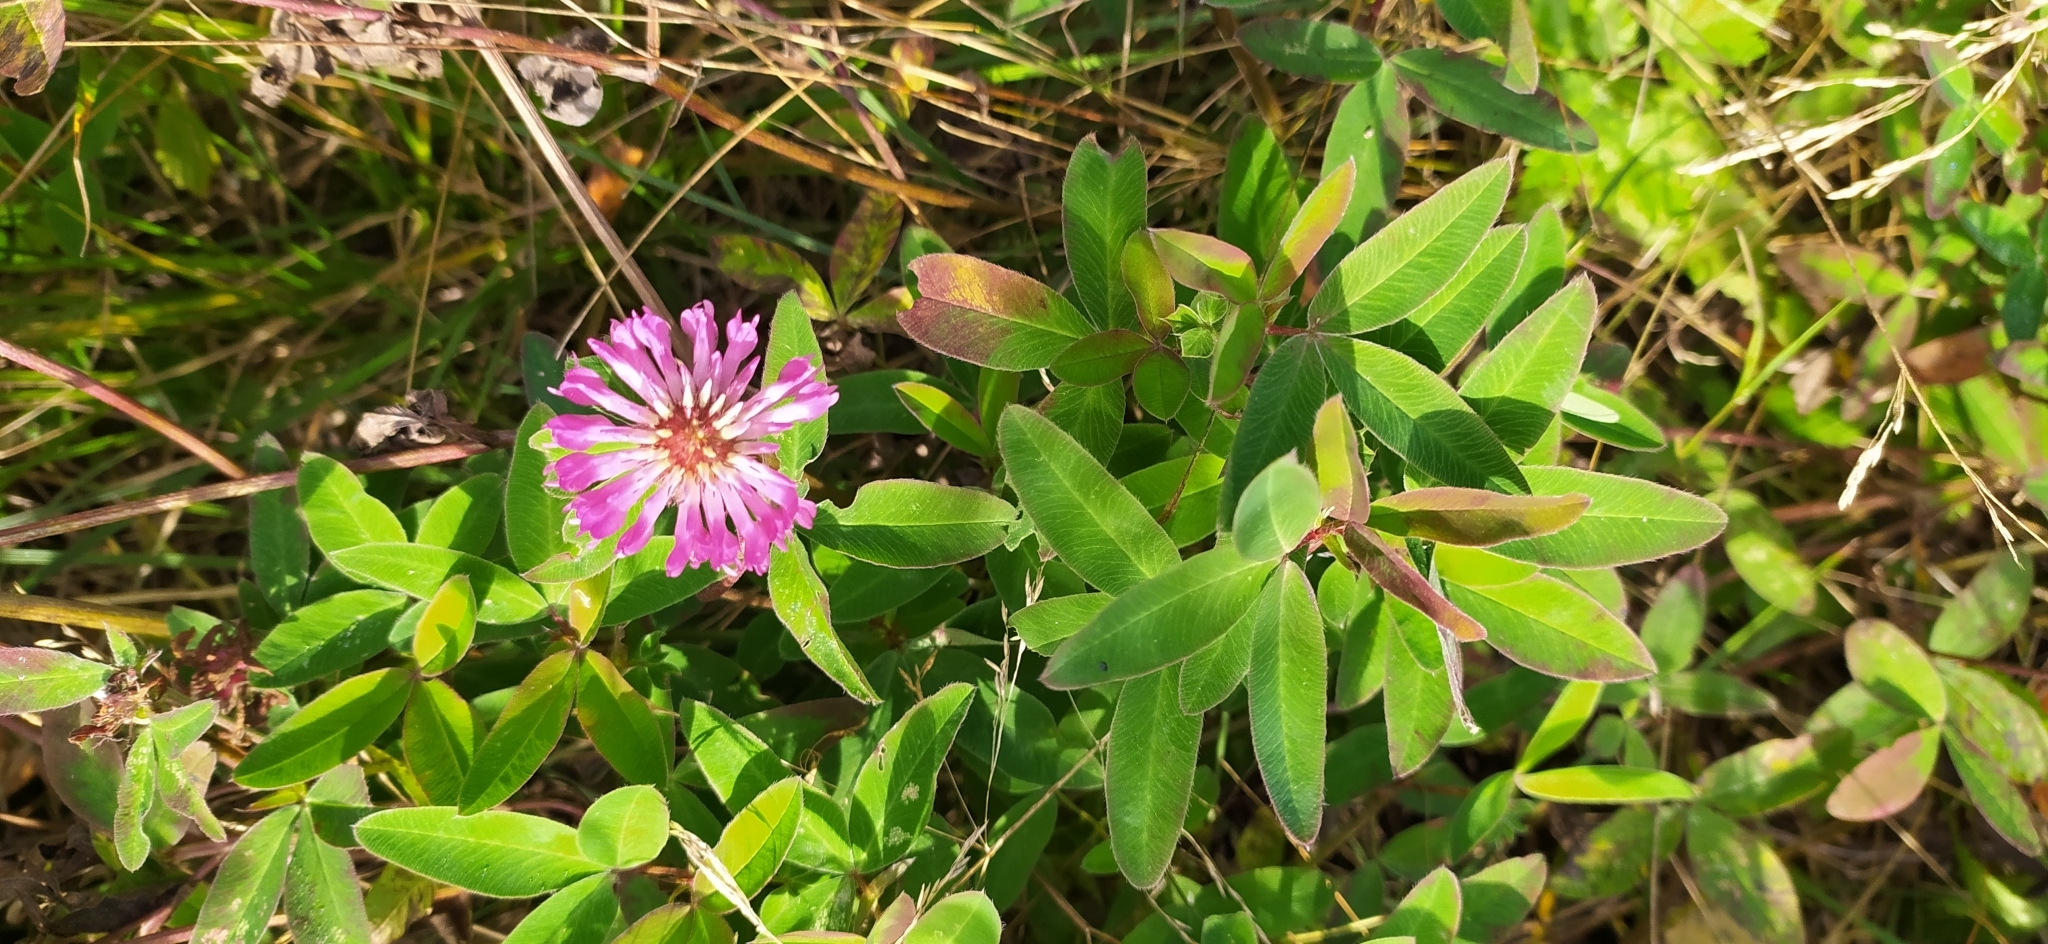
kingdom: Plantae
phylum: Tracheophyta
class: Magnoliopsida
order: Fabales
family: Fabaceae
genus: Trifolium
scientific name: Trifolium medium
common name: Zigzag clover
